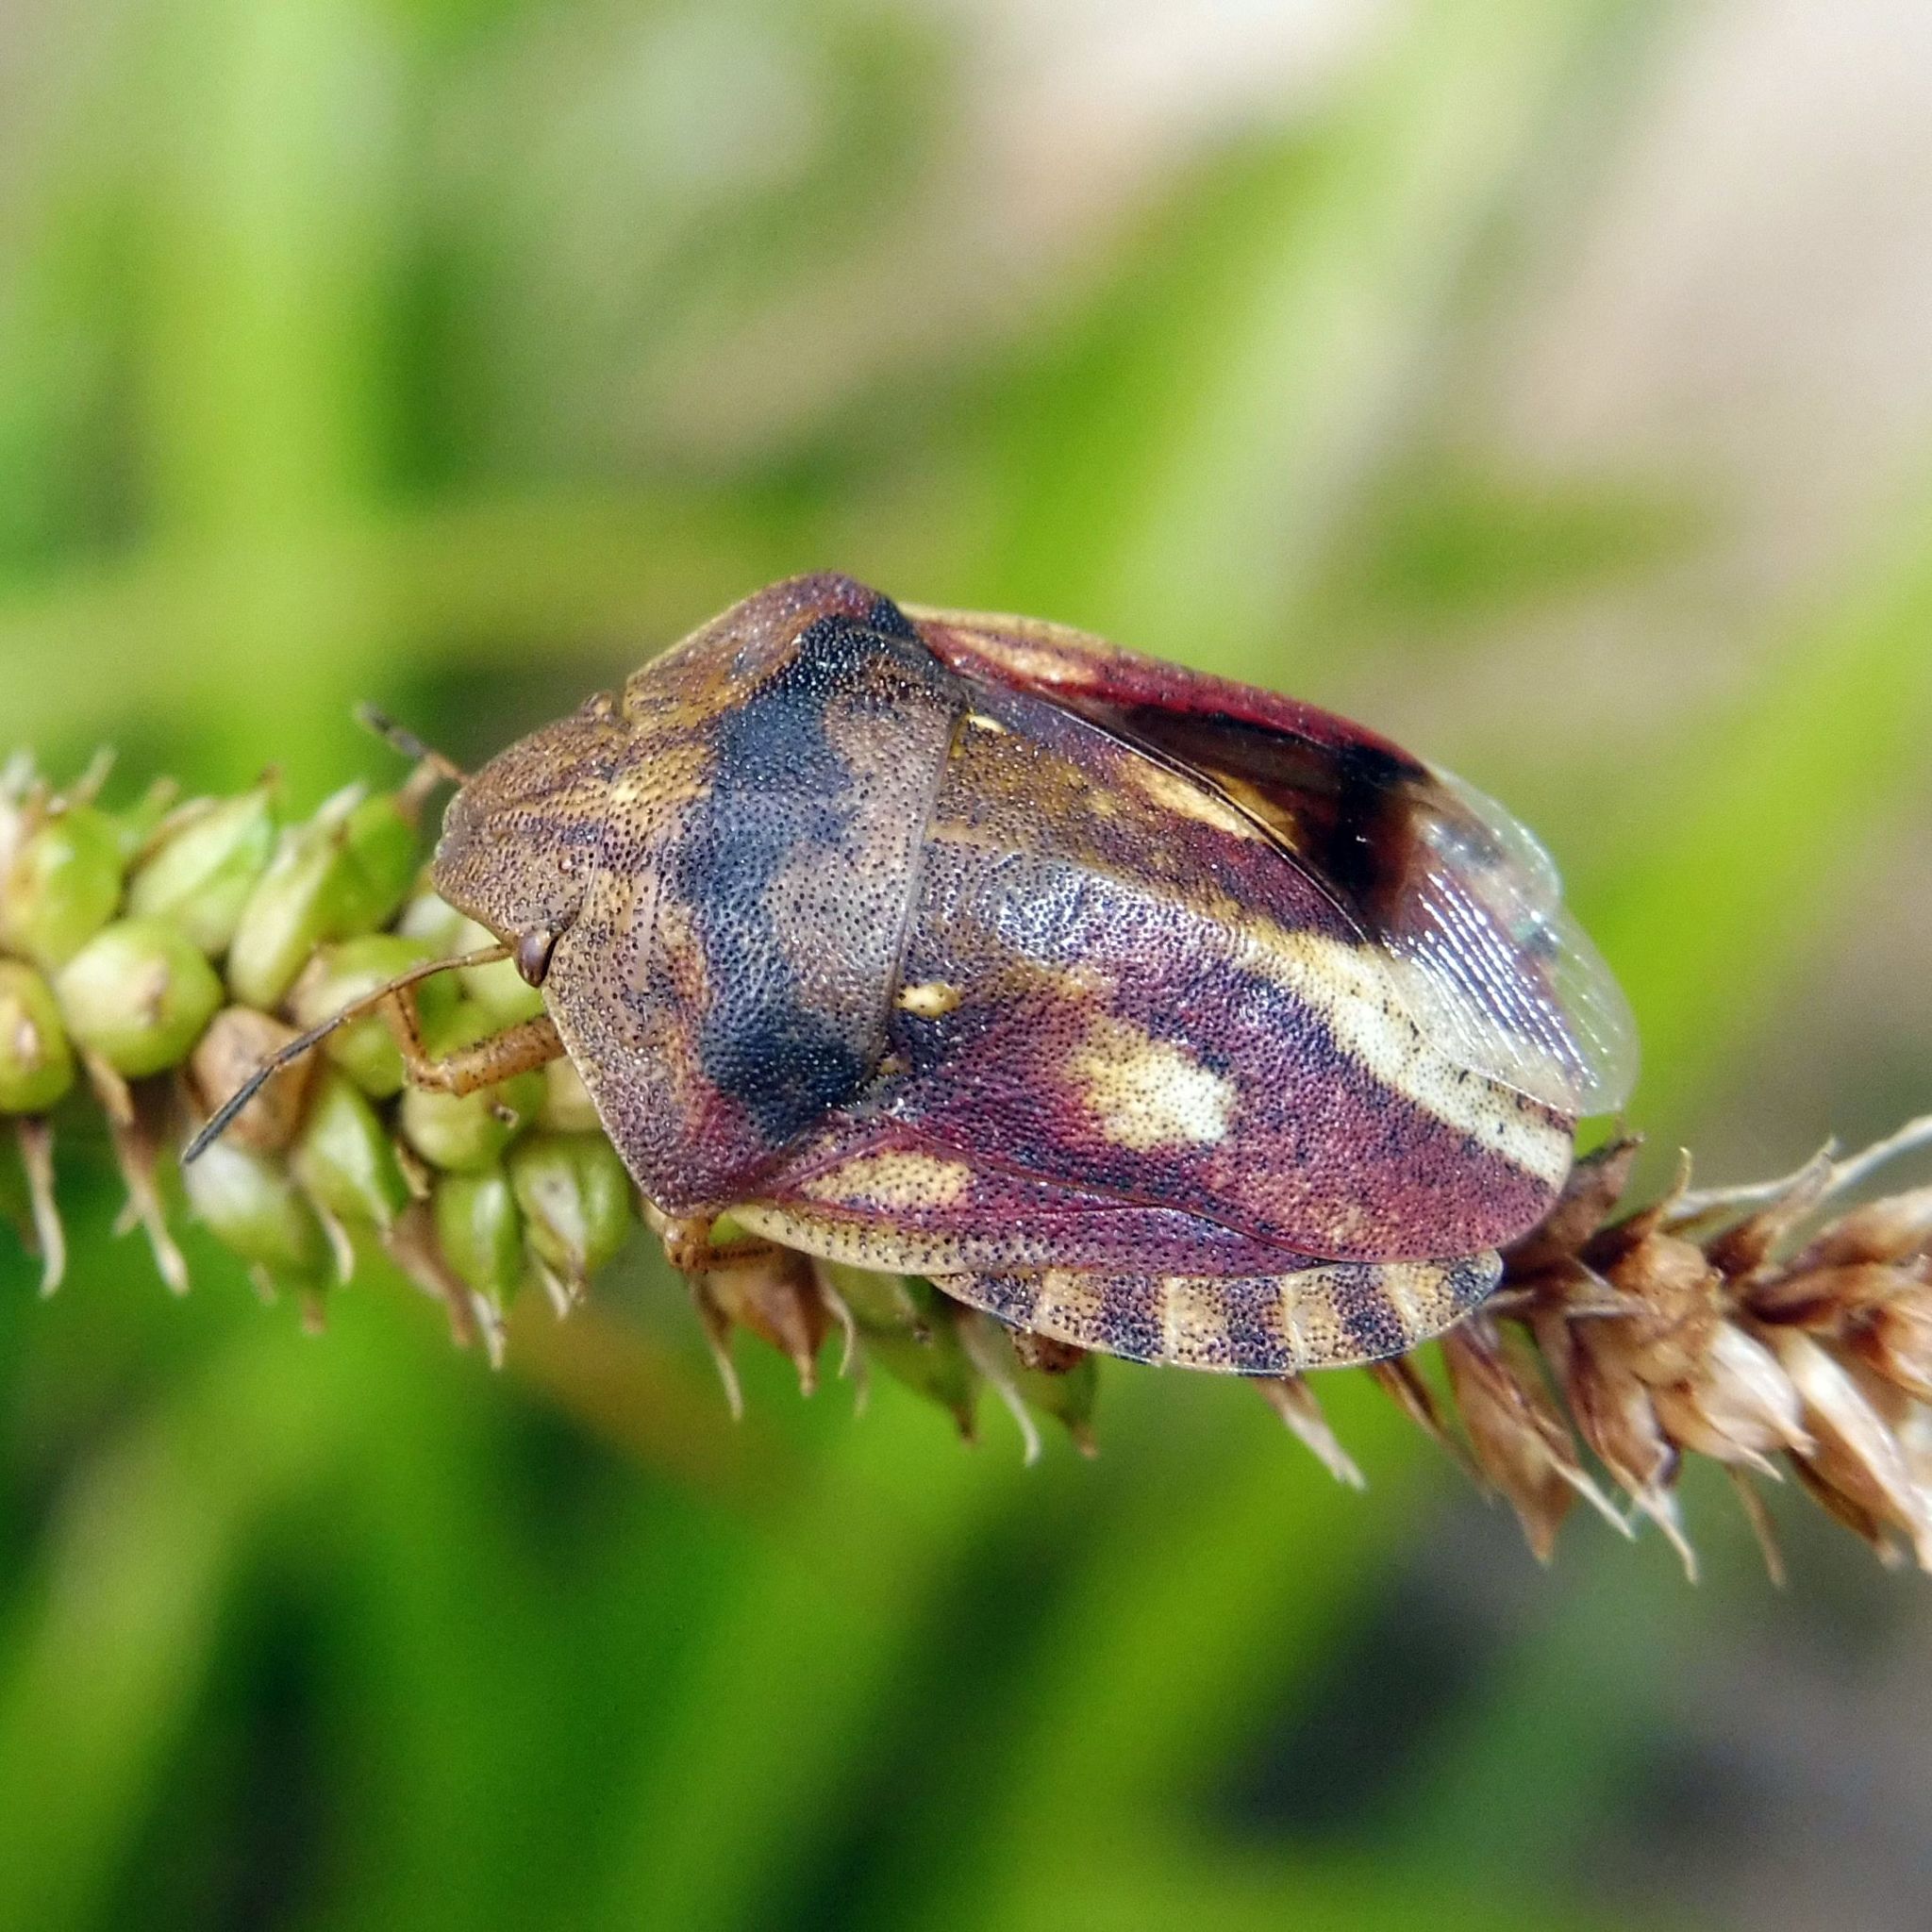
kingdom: Animalia
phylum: Arthropoda
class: Insecta
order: Hemiptera
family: Scutelleridae
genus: Eurygaster
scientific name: Eurygaster testudinaria
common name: Tortoise bug
